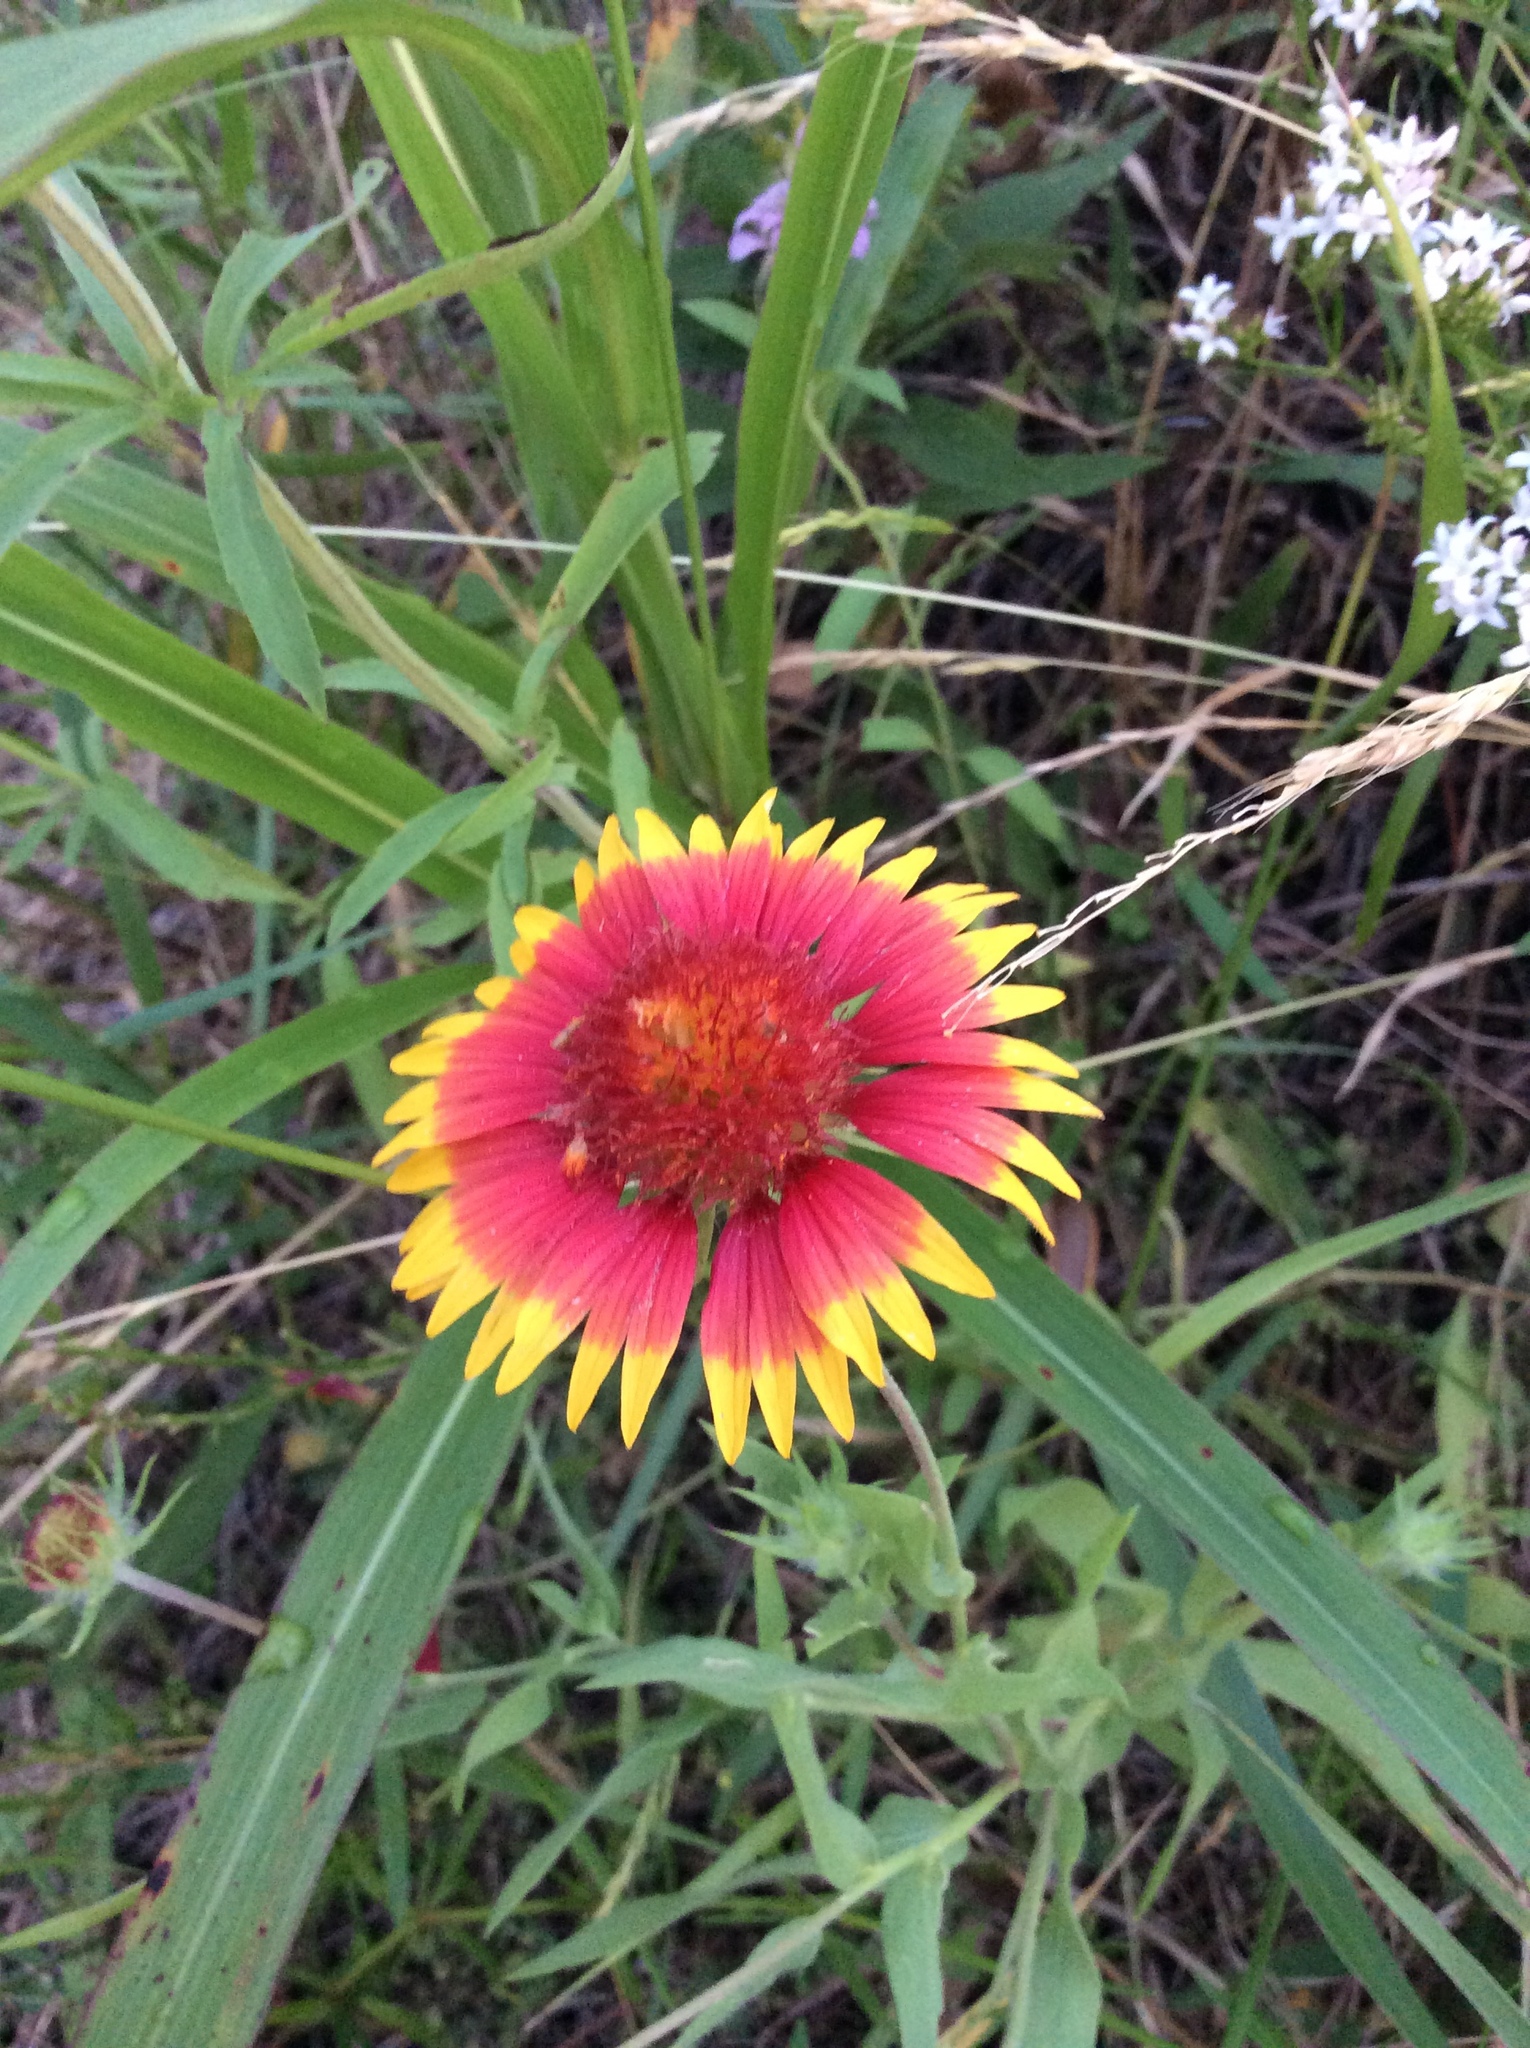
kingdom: Plantae
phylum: Tracheophyta
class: Magnoliopsida
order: Asterales
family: Asteraceae
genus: Gaillardia
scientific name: Gaillardia pulchella
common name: Firewheel
